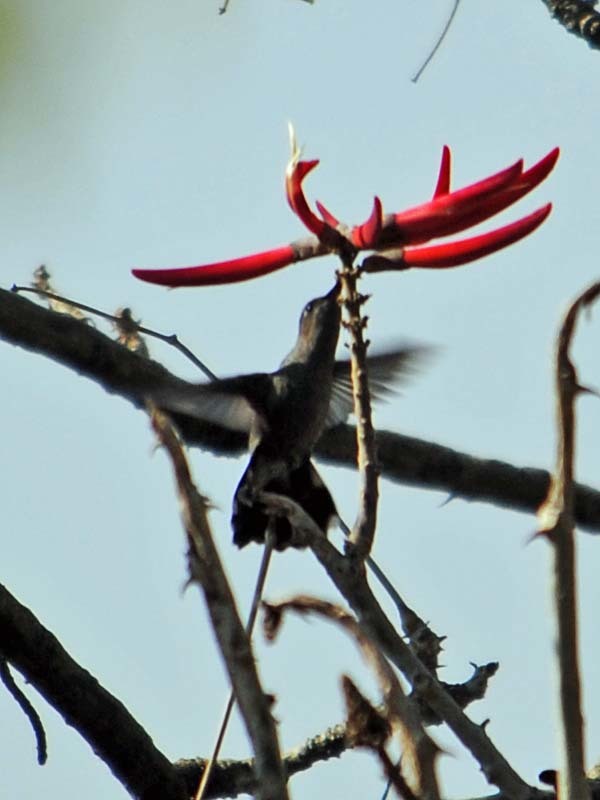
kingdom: Animalia
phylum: Chordata
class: Aves
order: Apodiformes
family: Trochilidae
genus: Eugenes
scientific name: Eugenes fulgens
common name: Magnificent hummingbird
